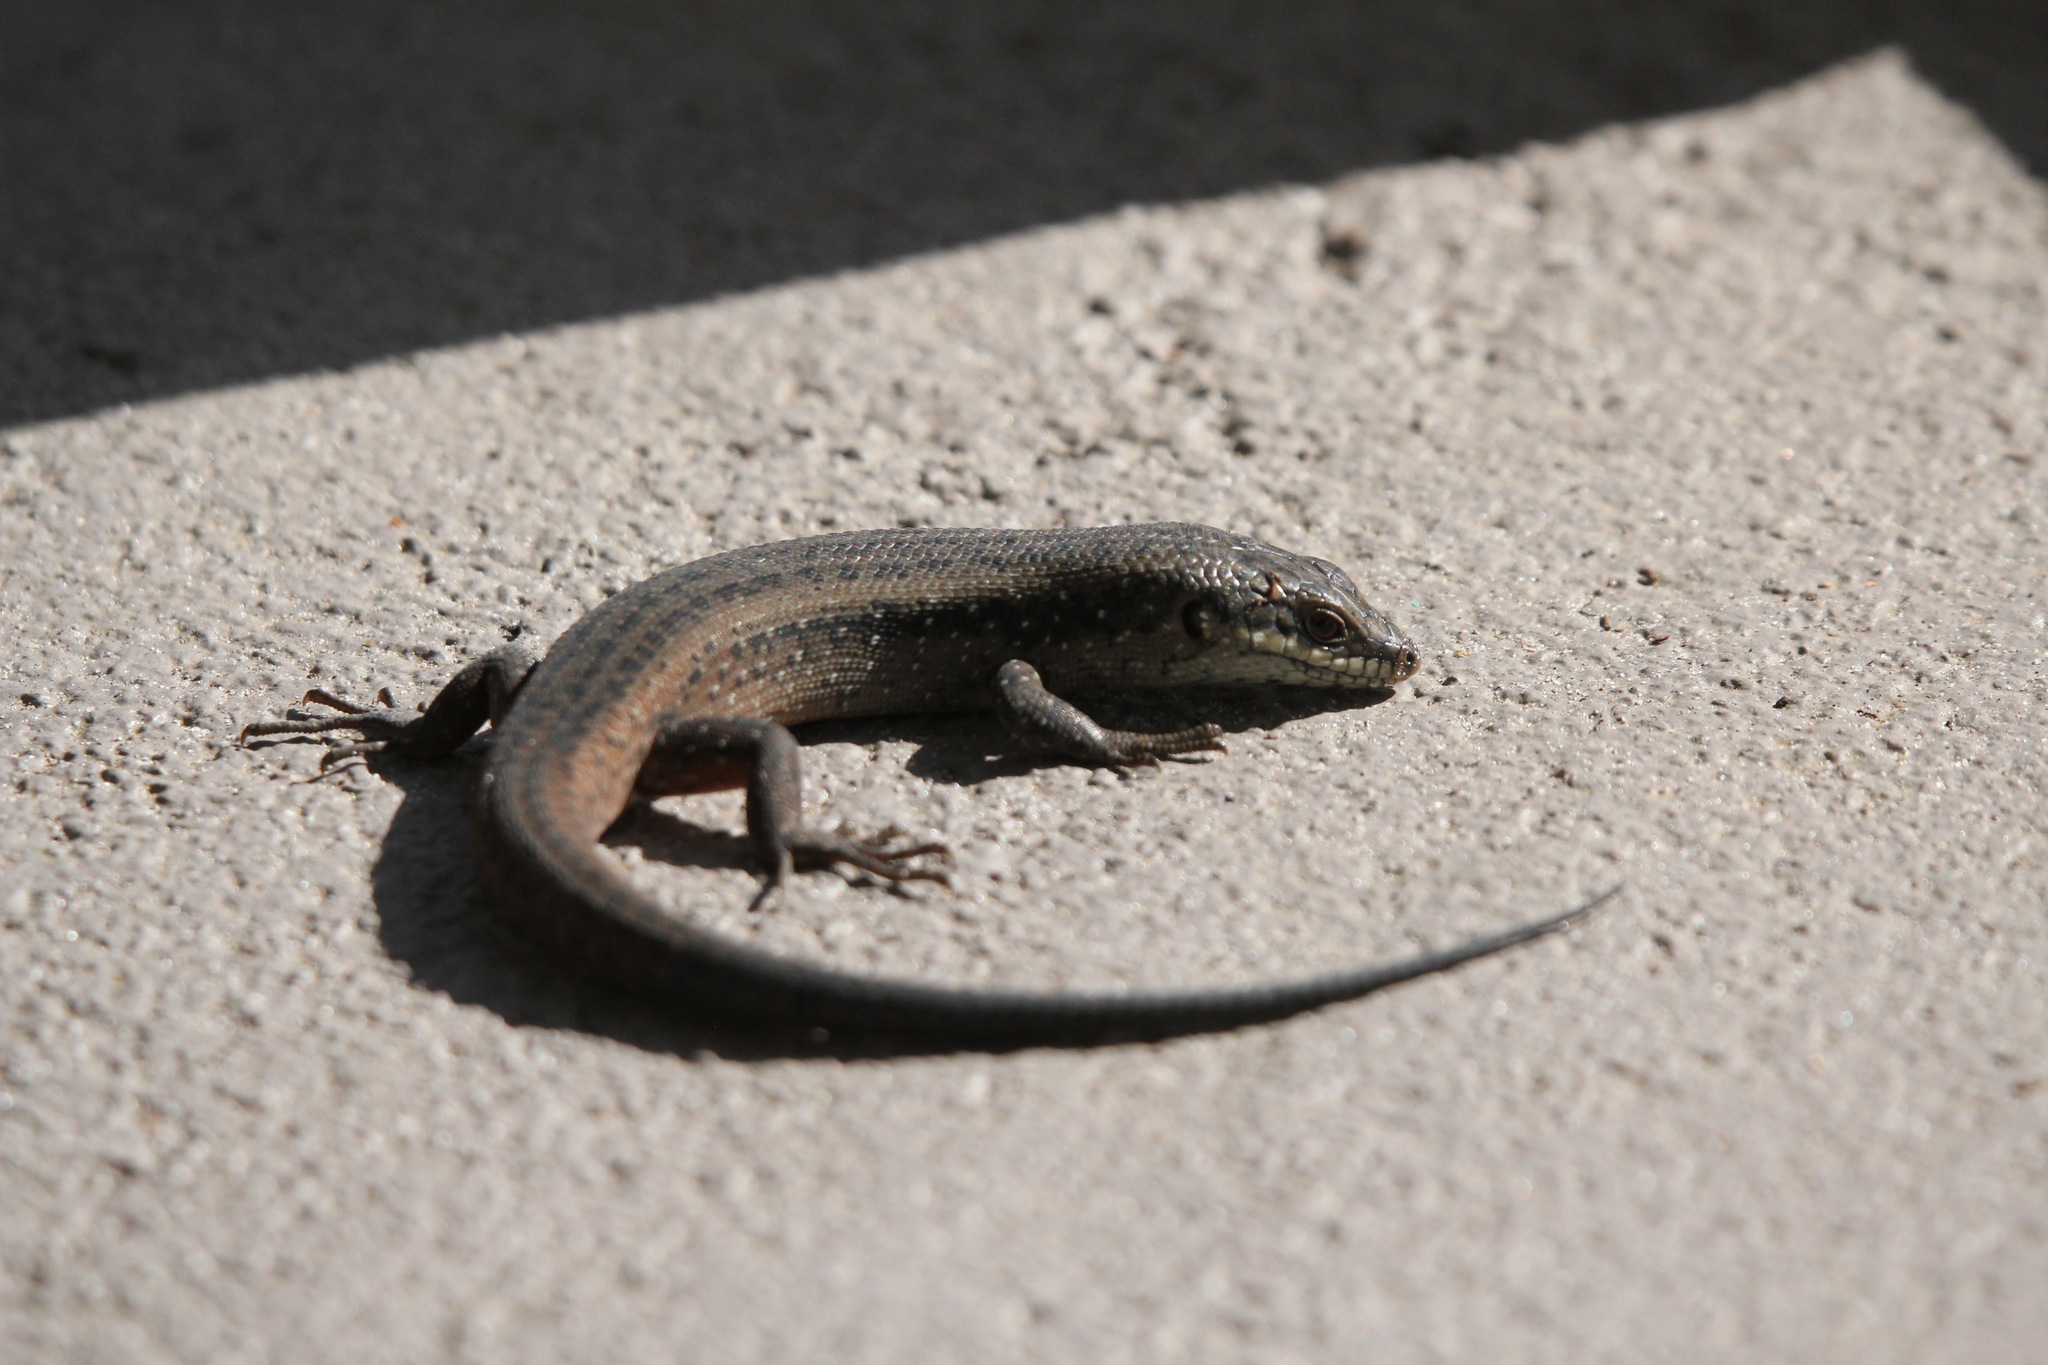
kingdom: Animalia
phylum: Chordata
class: Squamata
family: Scincidae
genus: Egernia
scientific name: Egernia napoleonis
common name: South-western crevice skink
